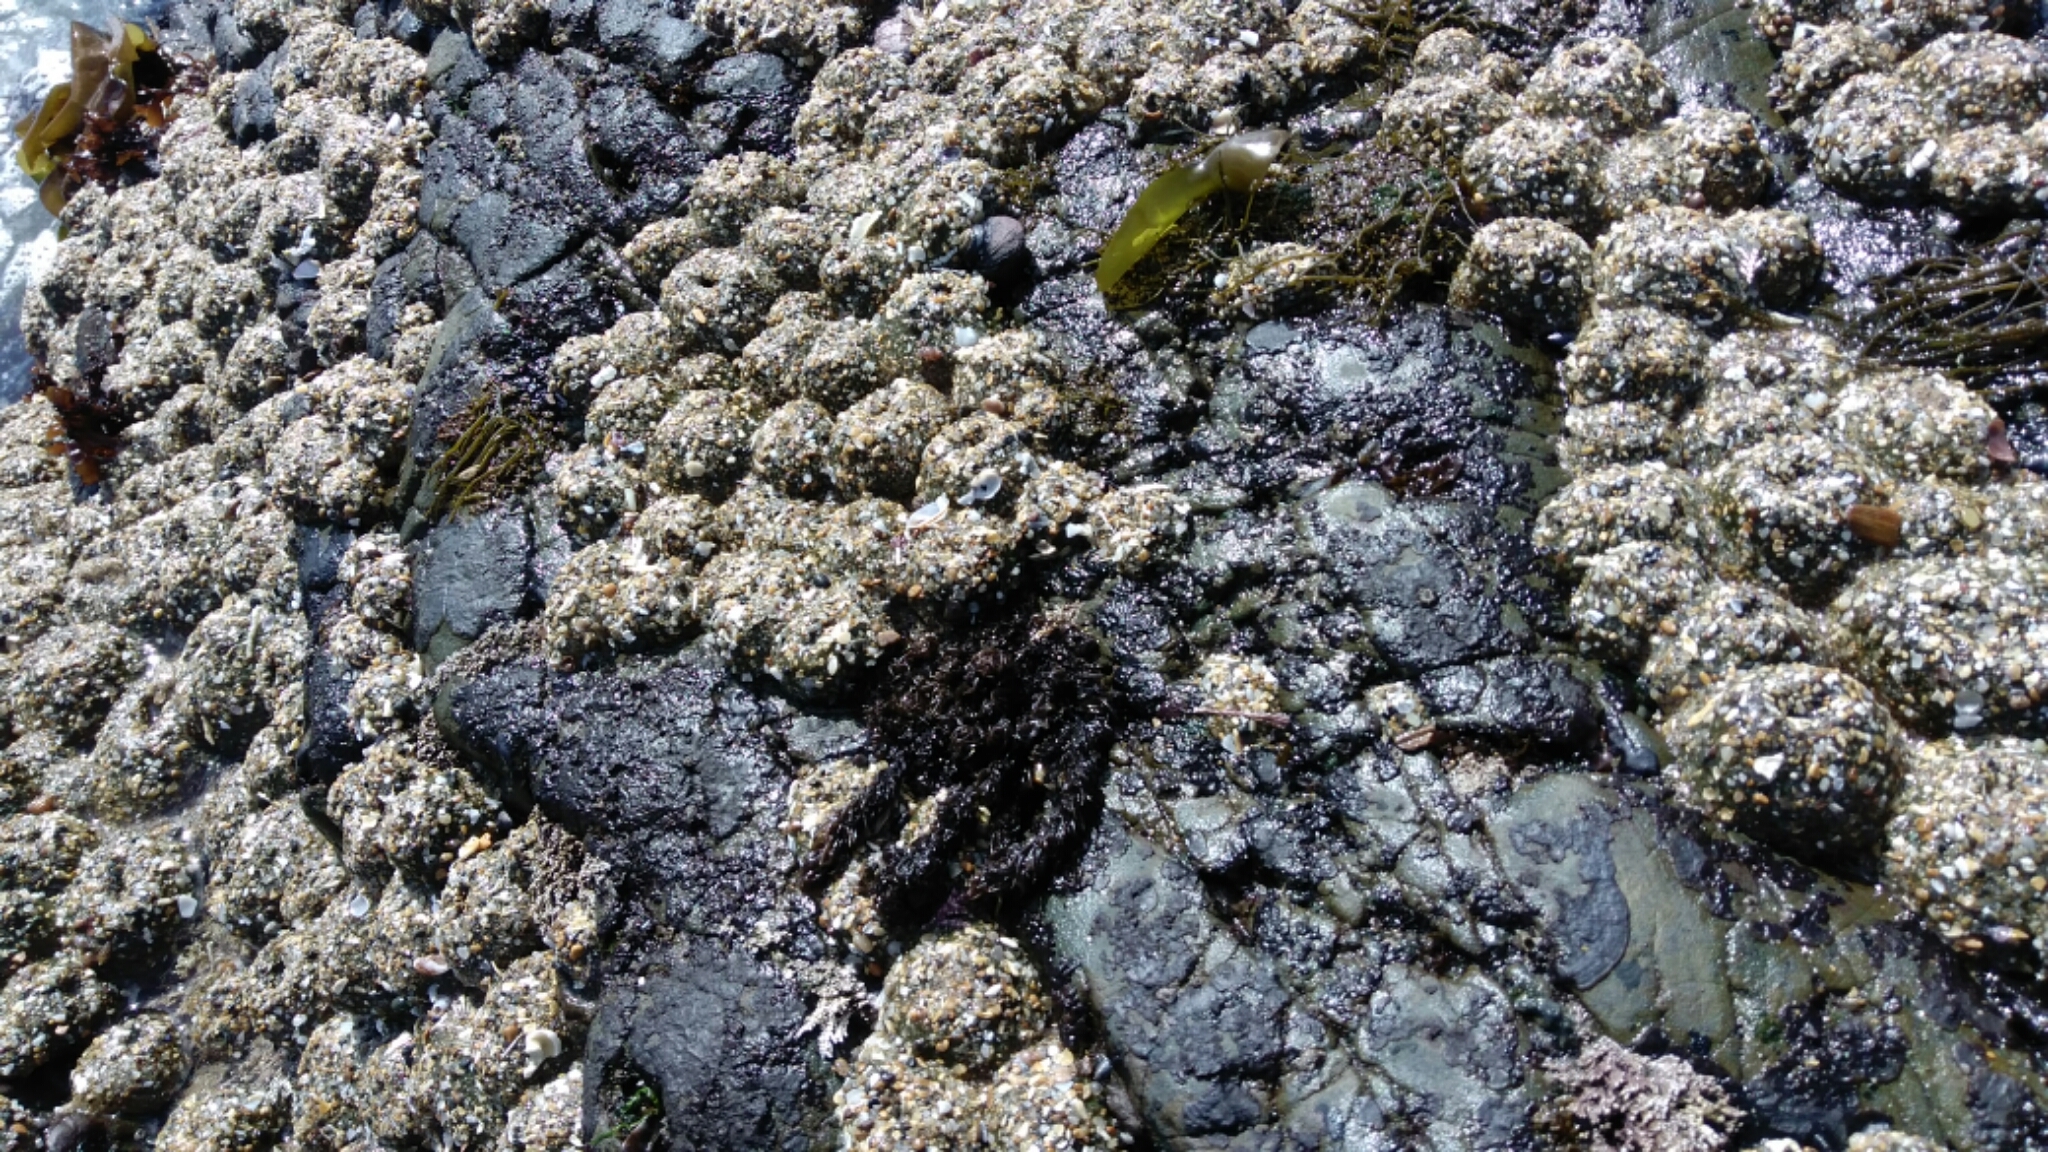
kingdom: Animalia
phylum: Cnidaria
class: Anthozoa
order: Actiniaria
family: Actiniidae
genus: Anthopleura
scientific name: Anthopleura elegantissima
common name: Clonal anemone
